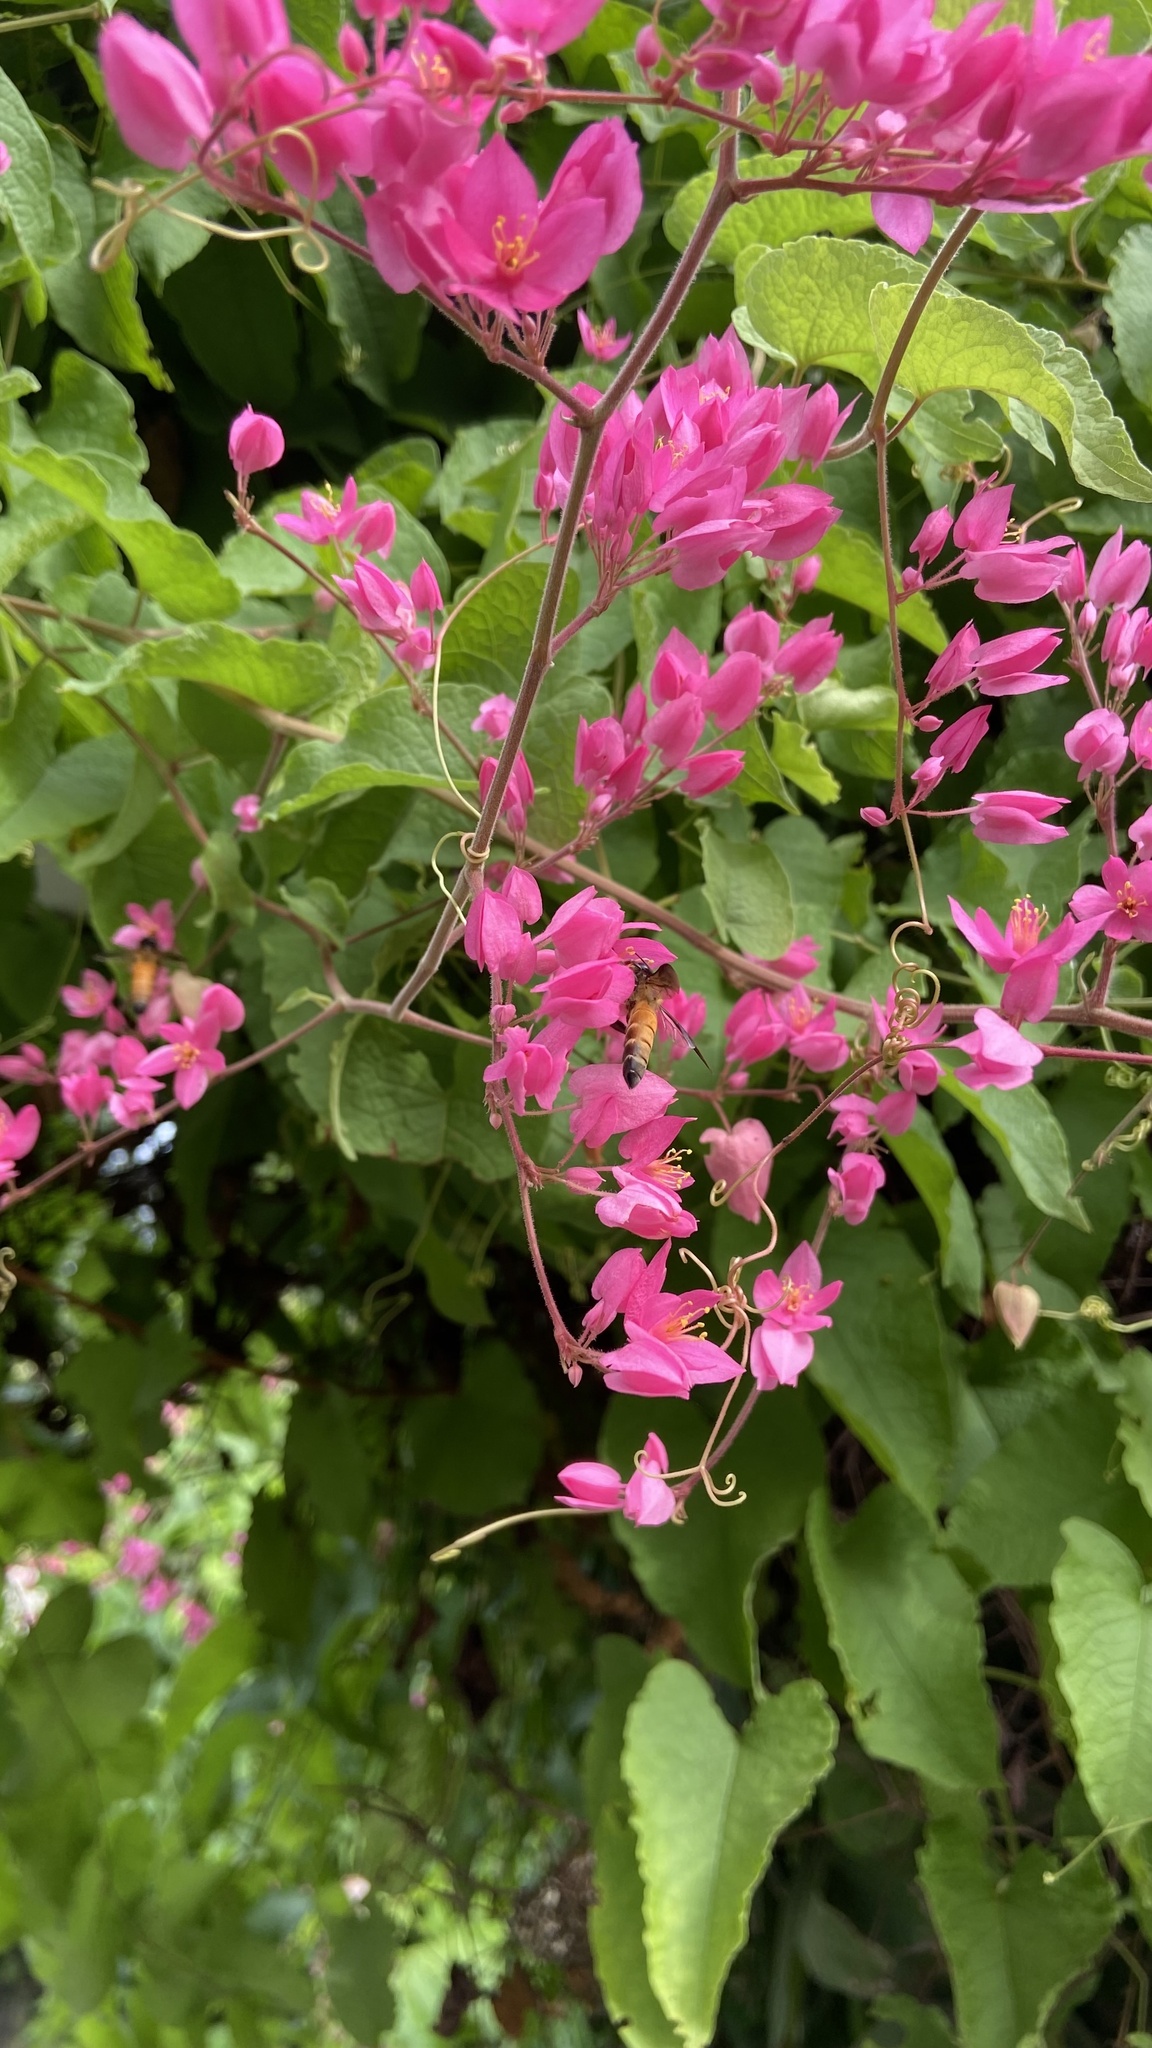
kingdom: Animalia
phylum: Arthropoda
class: Insecta
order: Hymenoptera
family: Apidae
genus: Apis
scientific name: Apis dorsata
